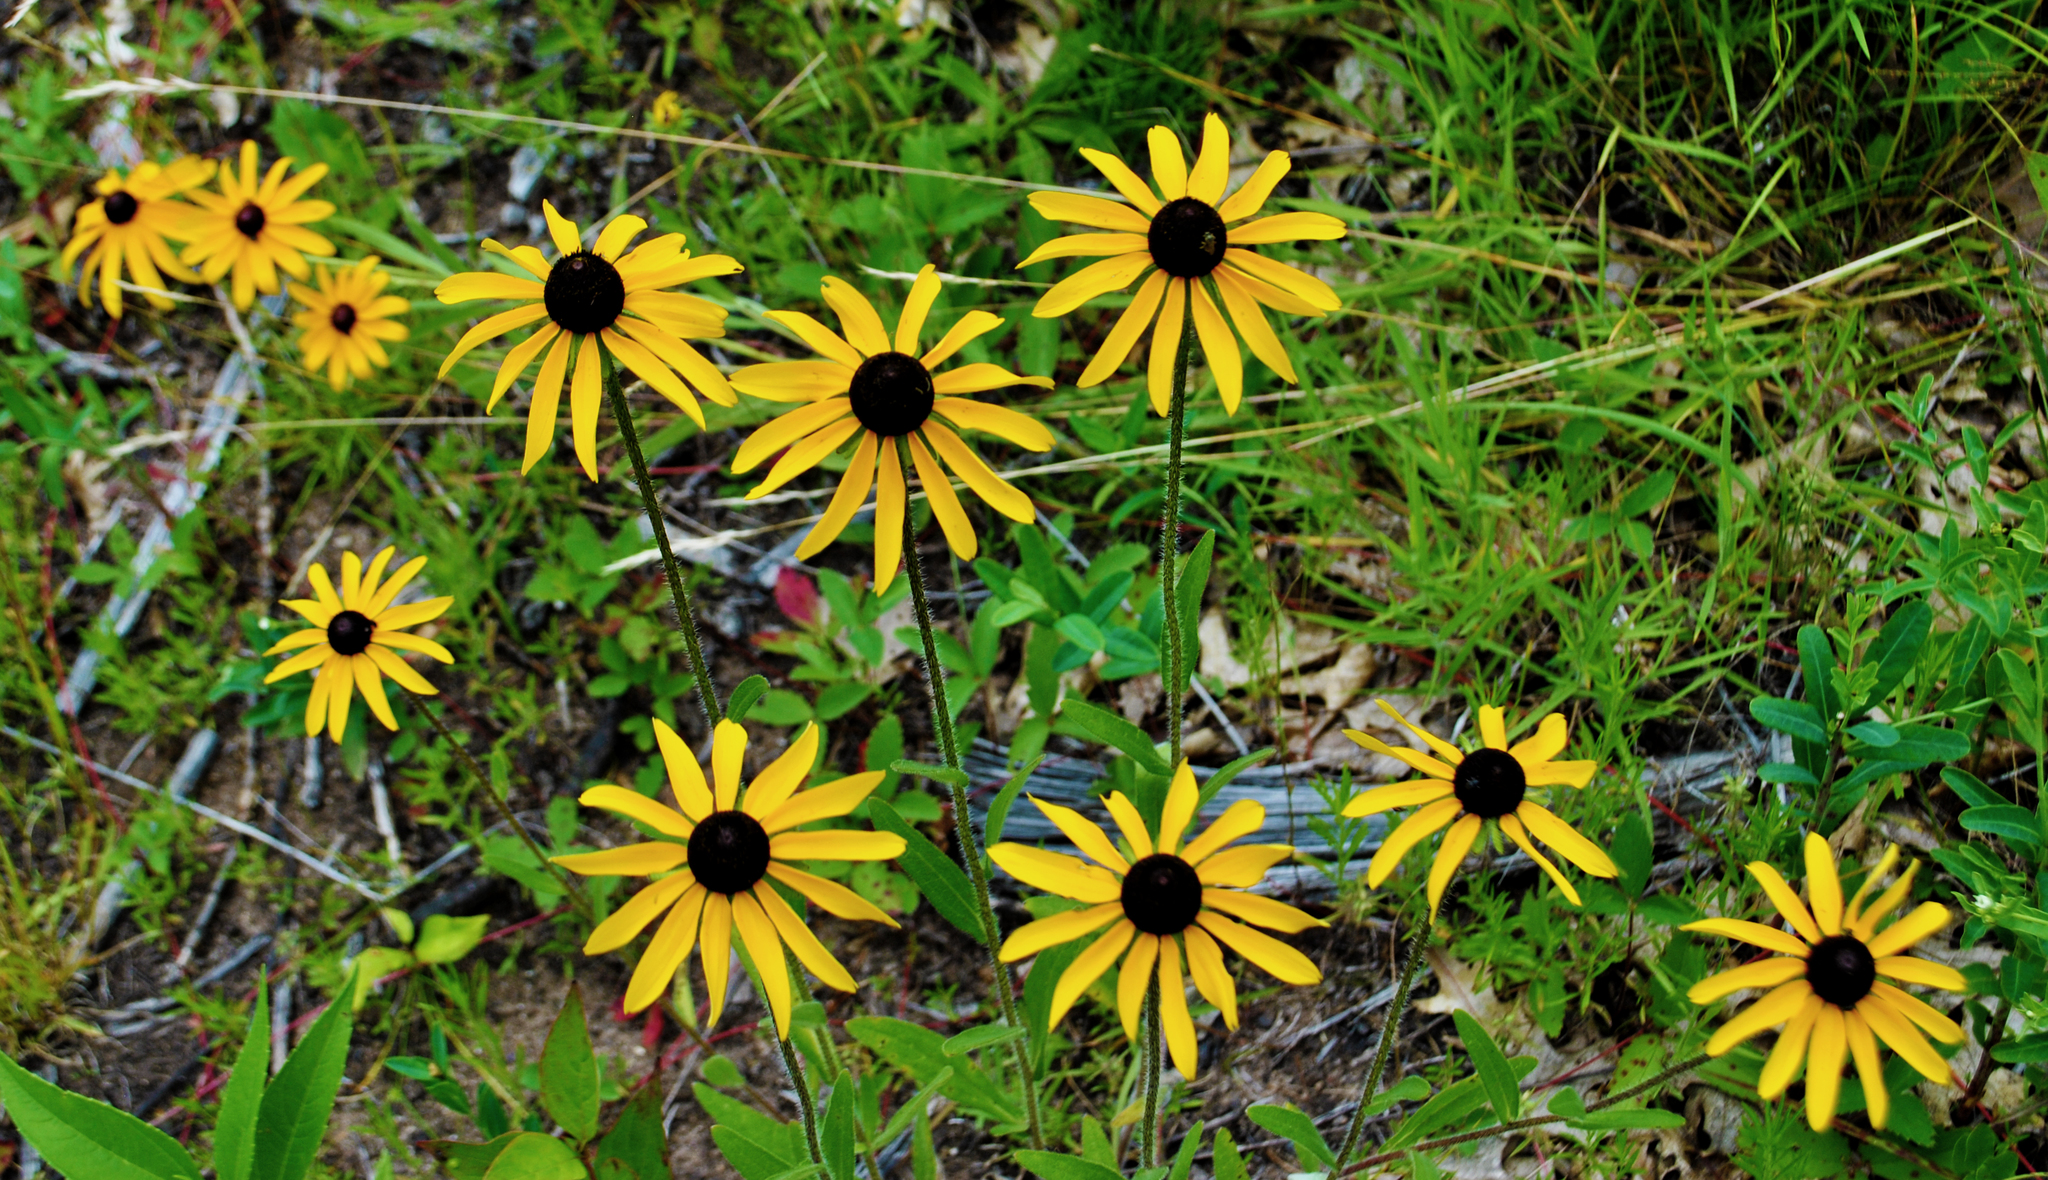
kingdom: Plantae
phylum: Tracheophyta
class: Magnoliopsida
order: Asterales
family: Asteraceae
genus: Rudbeckia
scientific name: Rudbeckia hirta
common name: Black-eyed-susan
